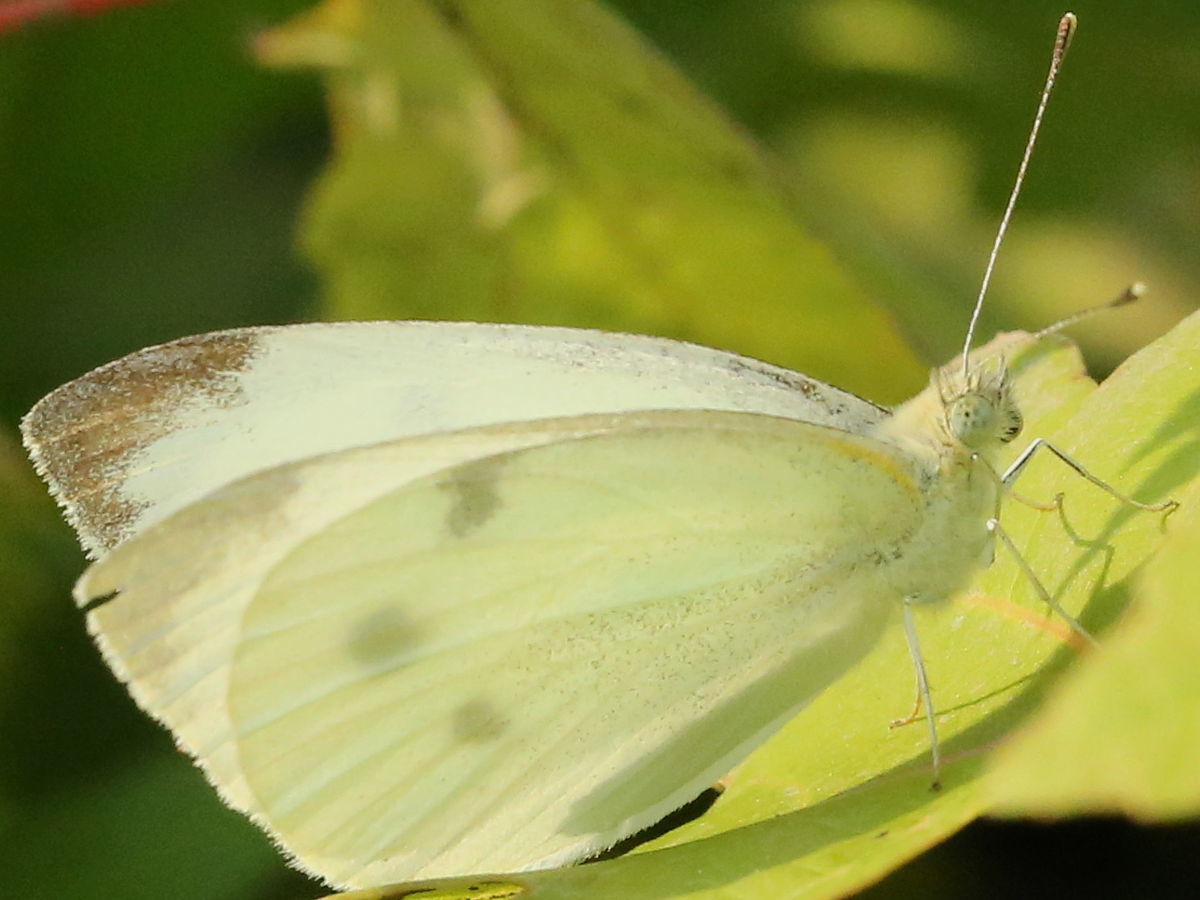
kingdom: Animalia
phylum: Arthropoda
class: Insecta
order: Lepidoptera
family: Pieridae
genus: Pieris
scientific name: Pieris rapae
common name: Small white
